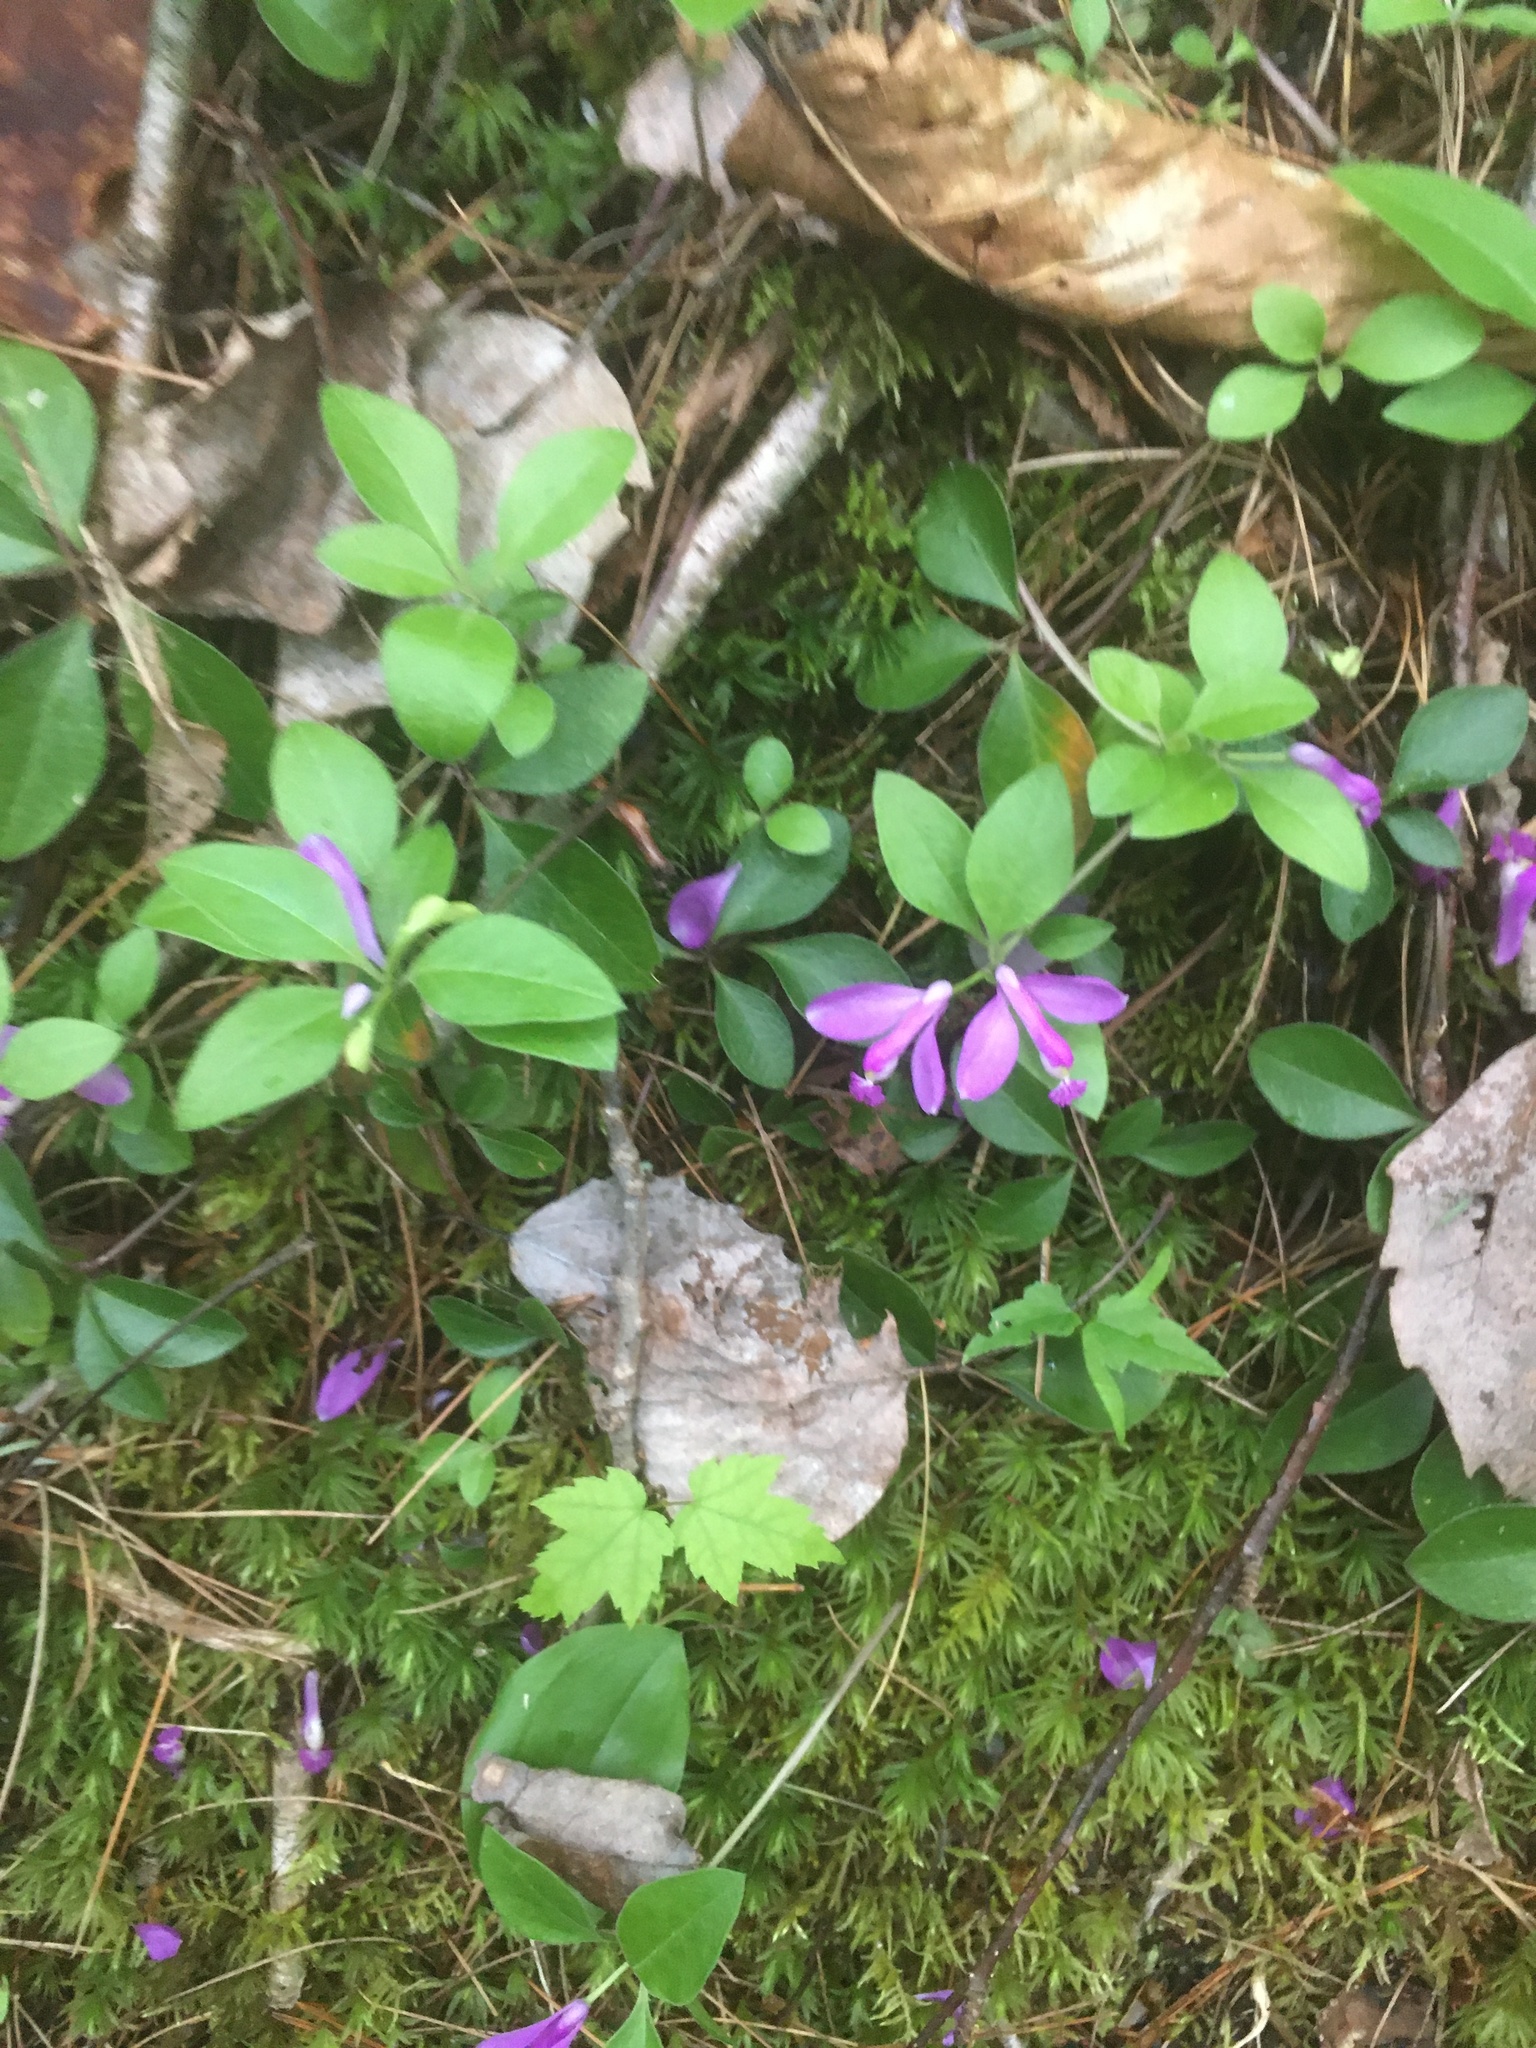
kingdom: Plantae
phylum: Tracheophyta
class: Magnoliopsida
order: Fabales
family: Polygalaceae
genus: Polygaloides
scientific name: Polygaloides paucifolia
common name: Bird-on-the-wing
